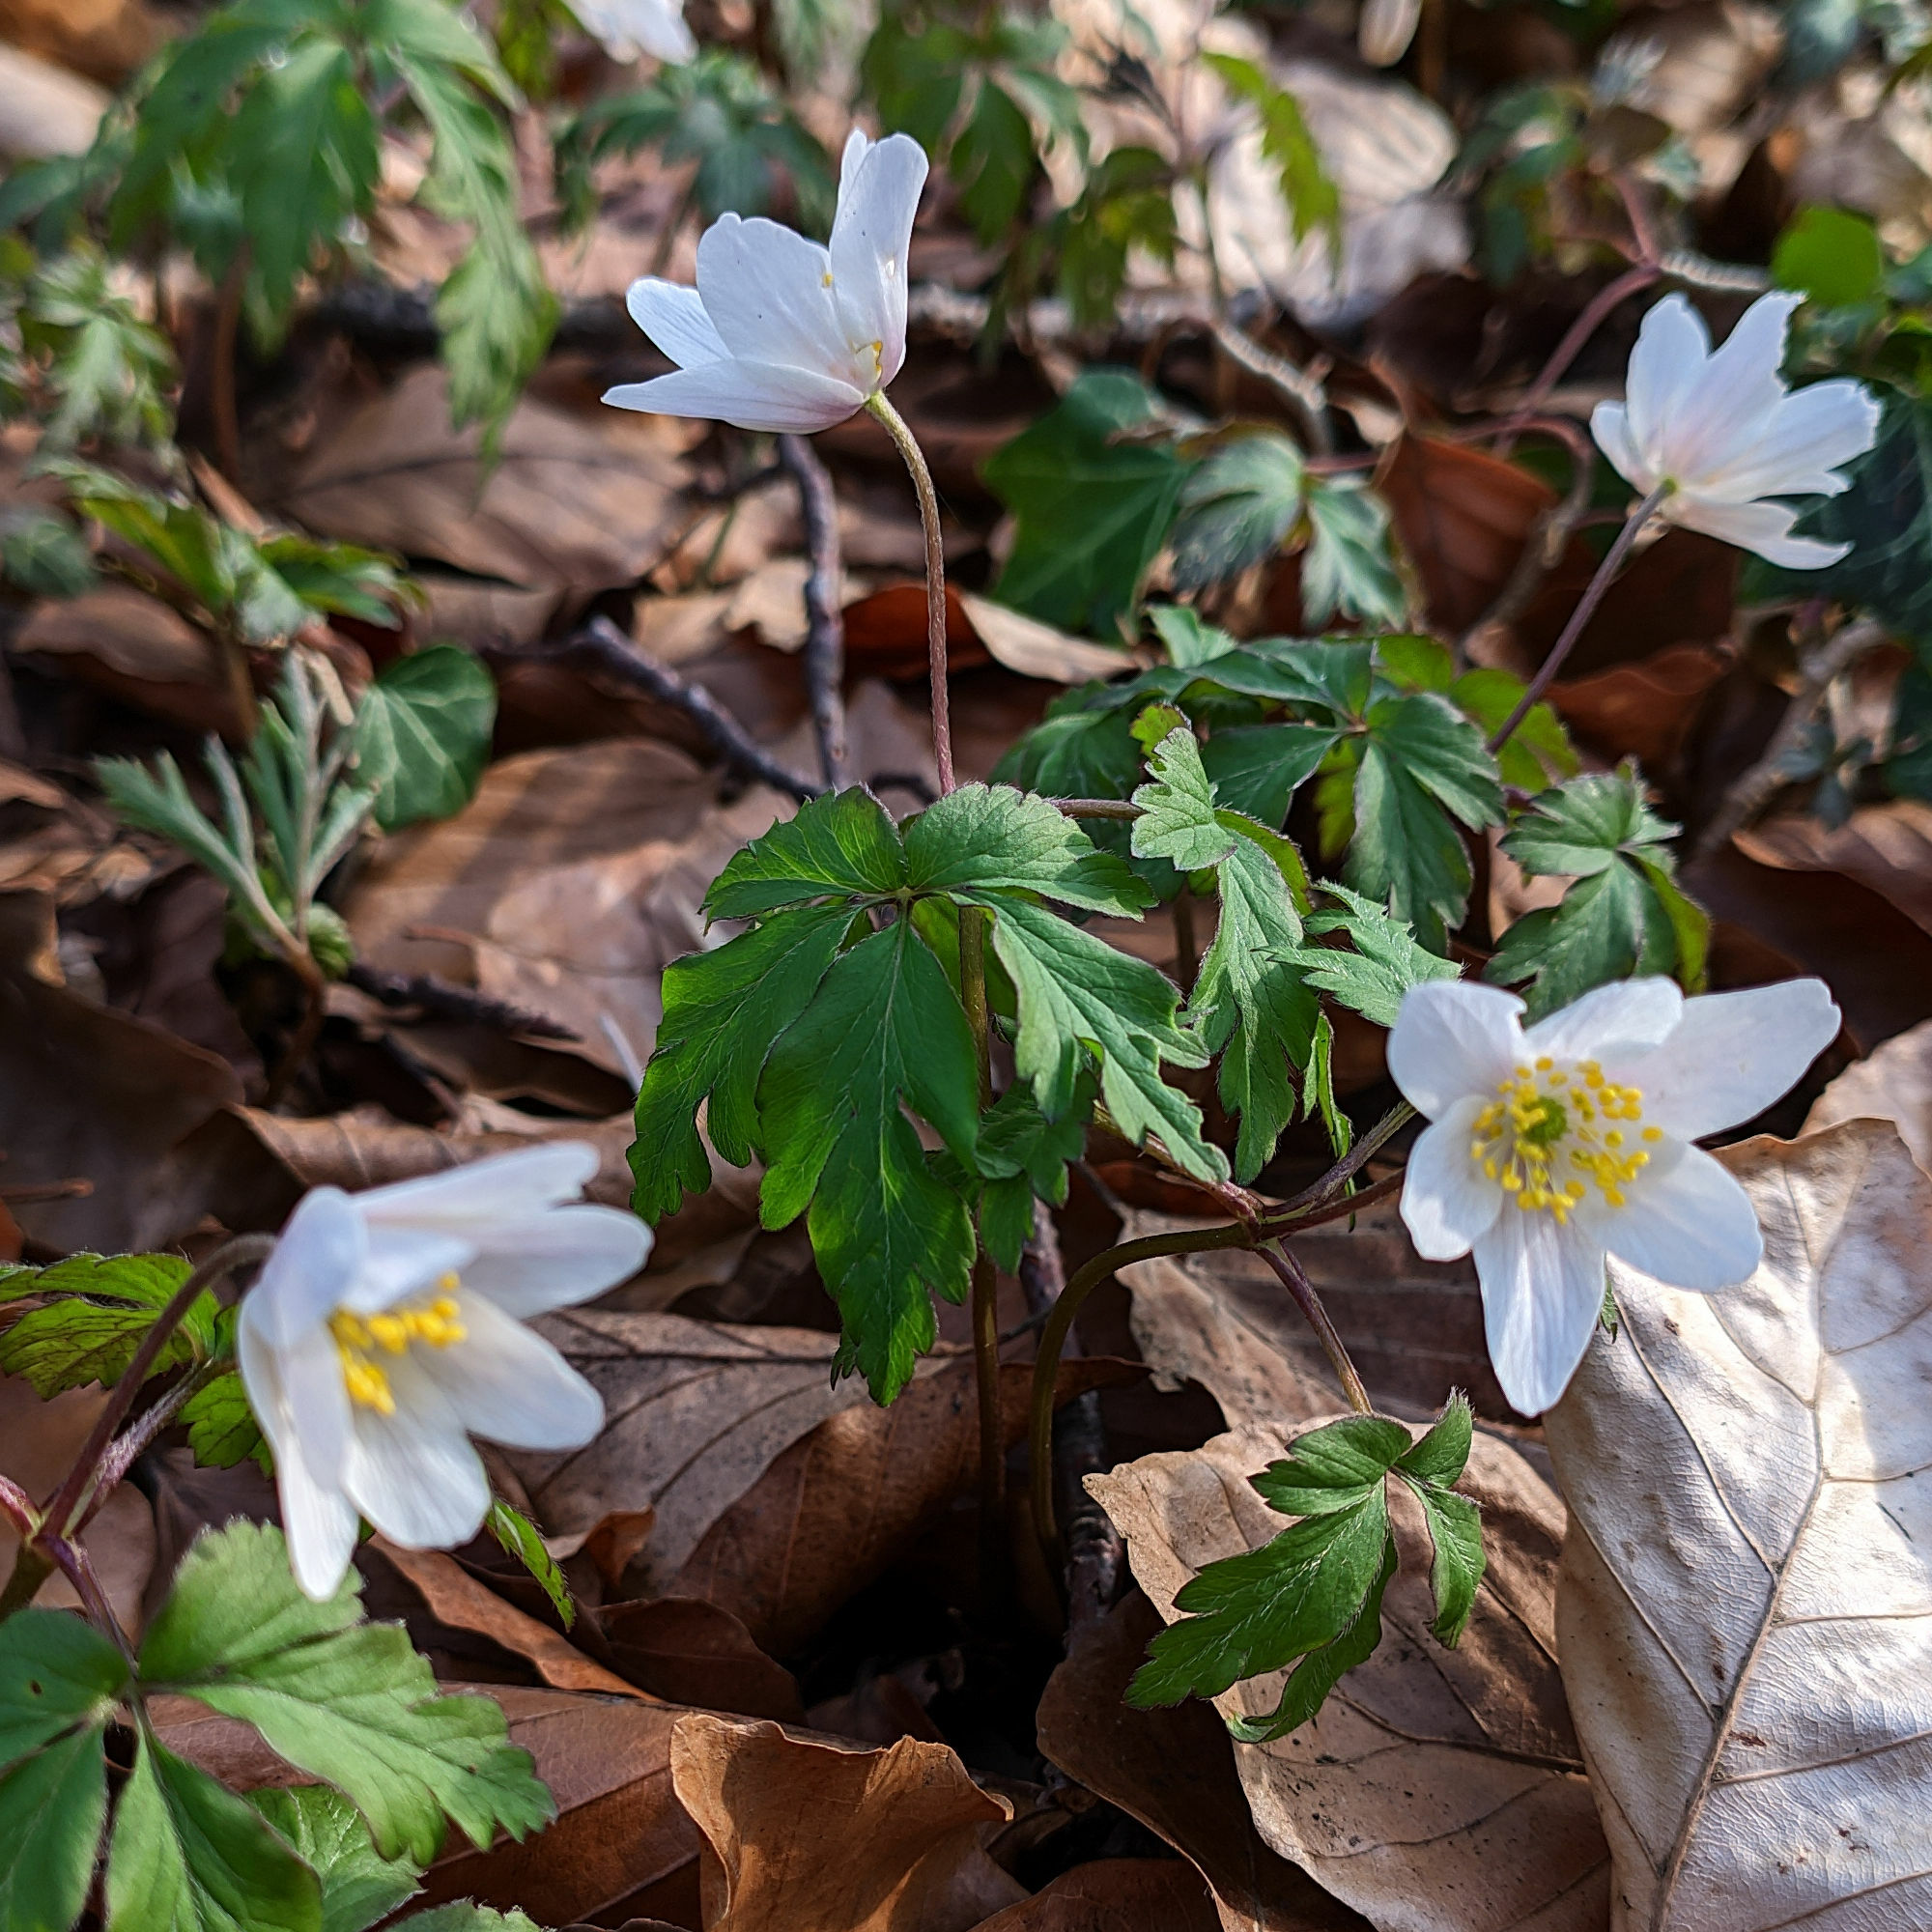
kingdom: Plantae
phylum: Tracheophyta
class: Magnoliopsida
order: Ranunculales
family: Ranunculaceae
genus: Anemone
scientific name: Anemone nemorosa
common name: Wood anemone
